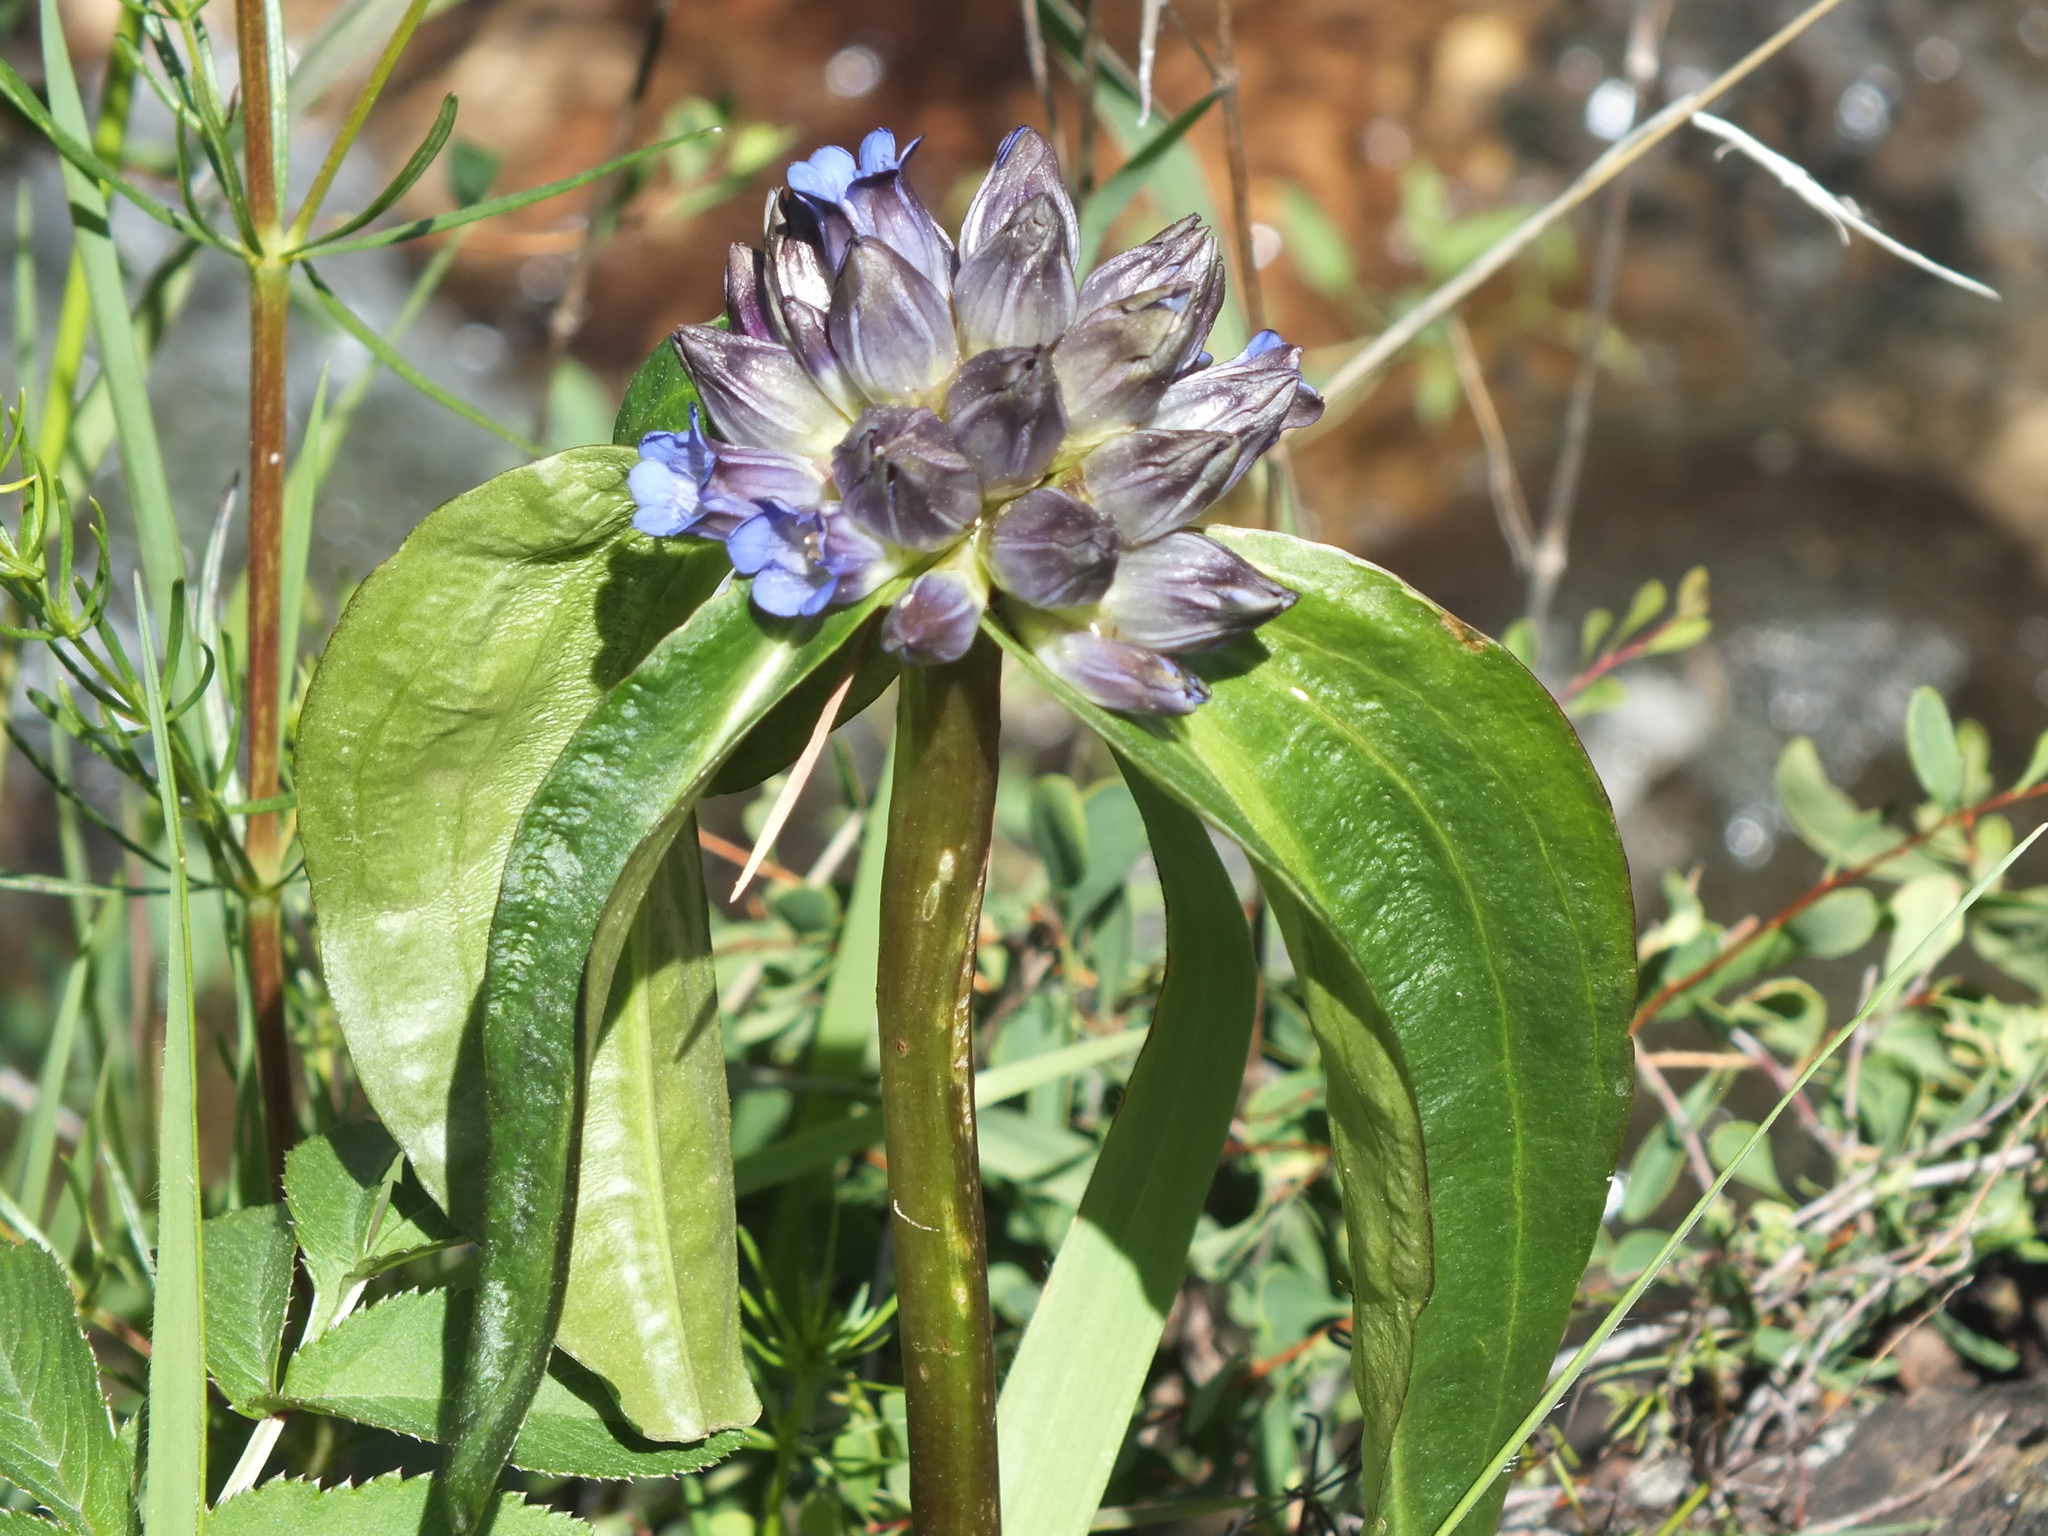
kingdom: Plantae
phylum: Tracheophyta
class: Magnoliopsida
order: Gentianales
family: Gentianaceae
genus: Gentiana
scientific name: Gentiana macrophylla
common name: Large-leaf gentian
